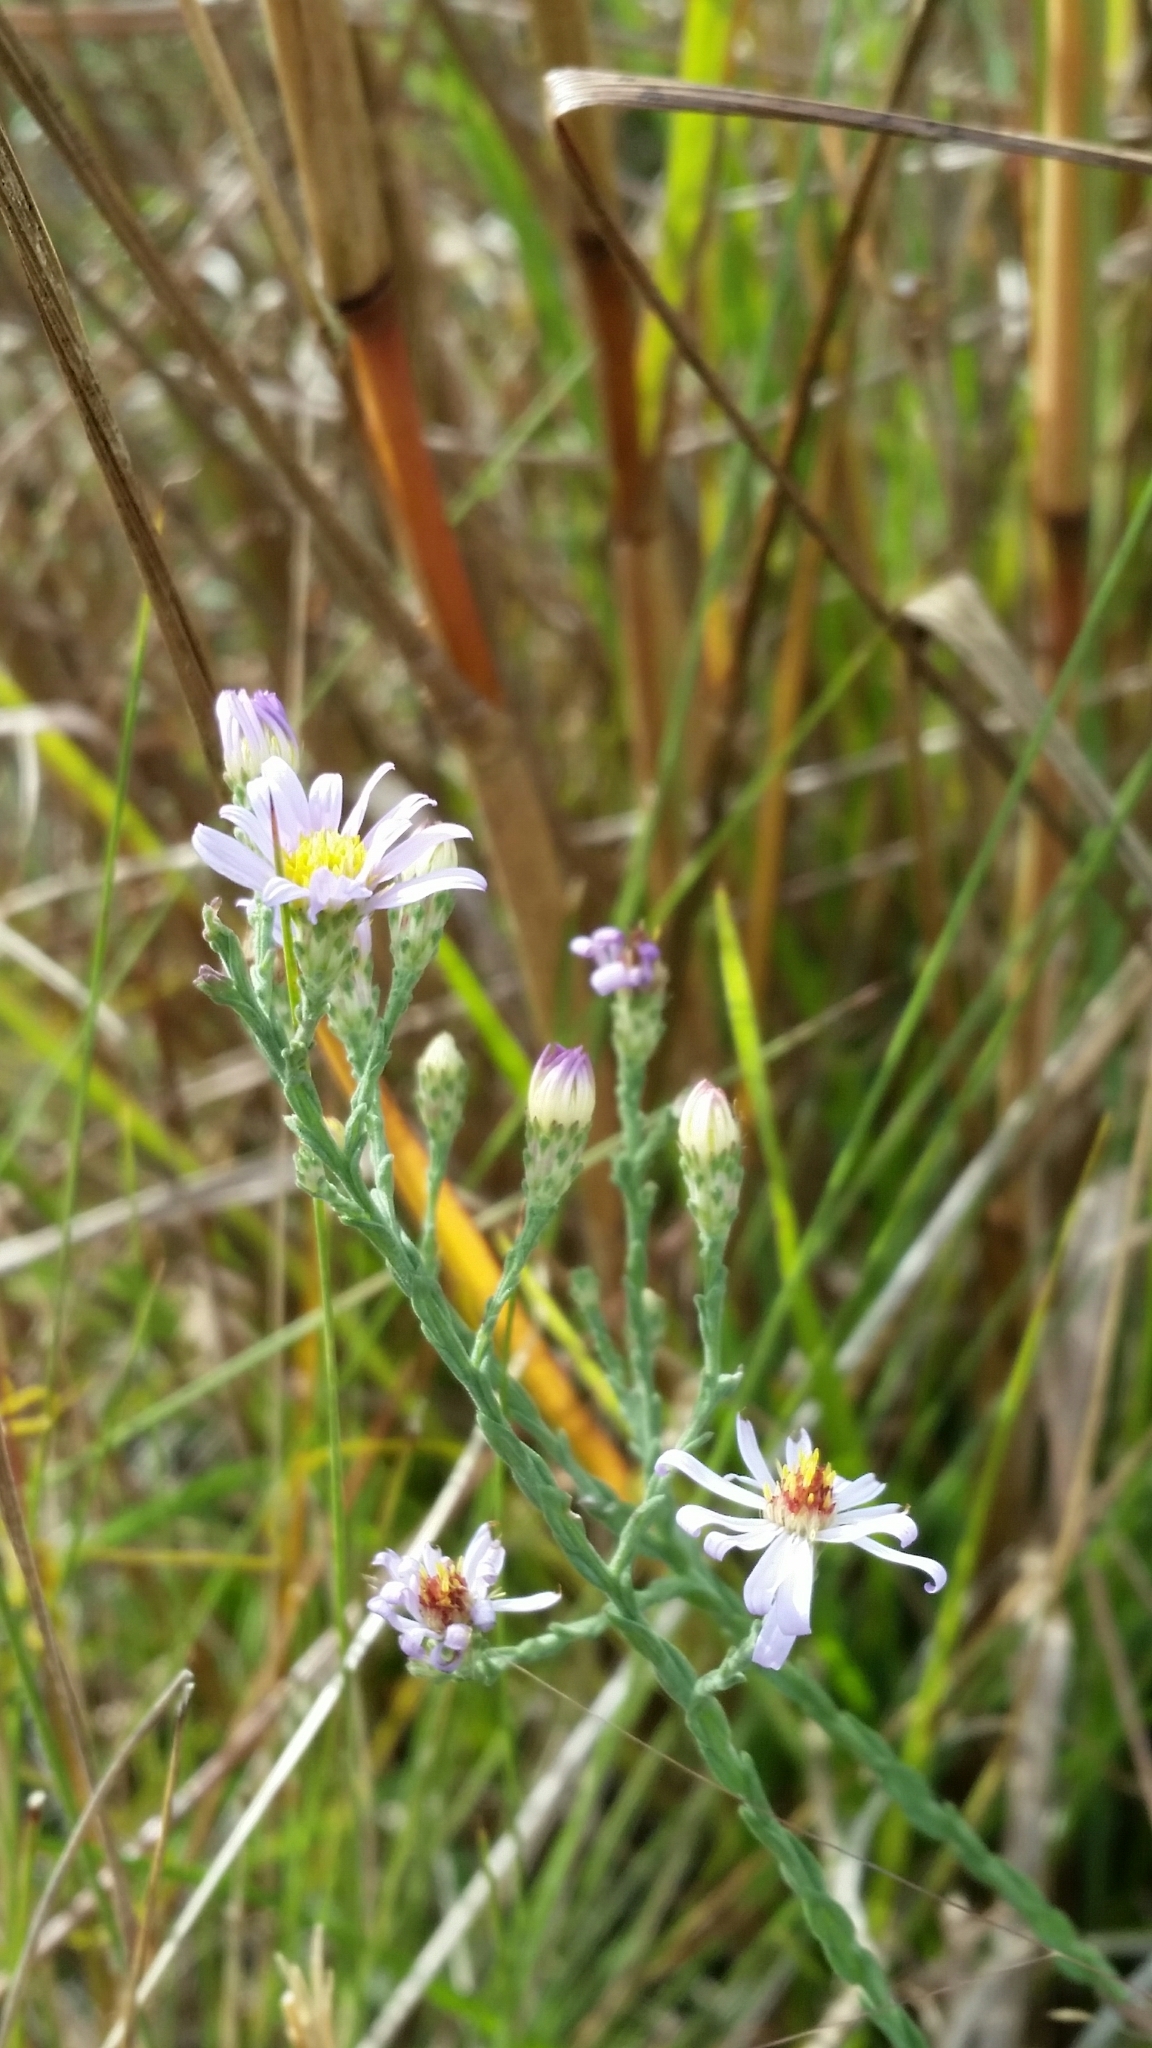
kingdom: Plantae
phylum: Tracheophyta
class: Magnoliopsida
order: Asterales
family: Asteraceae
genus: Symphyotrichum
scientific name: Symphyotrichum adnatum
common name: Scale-leaf aster
